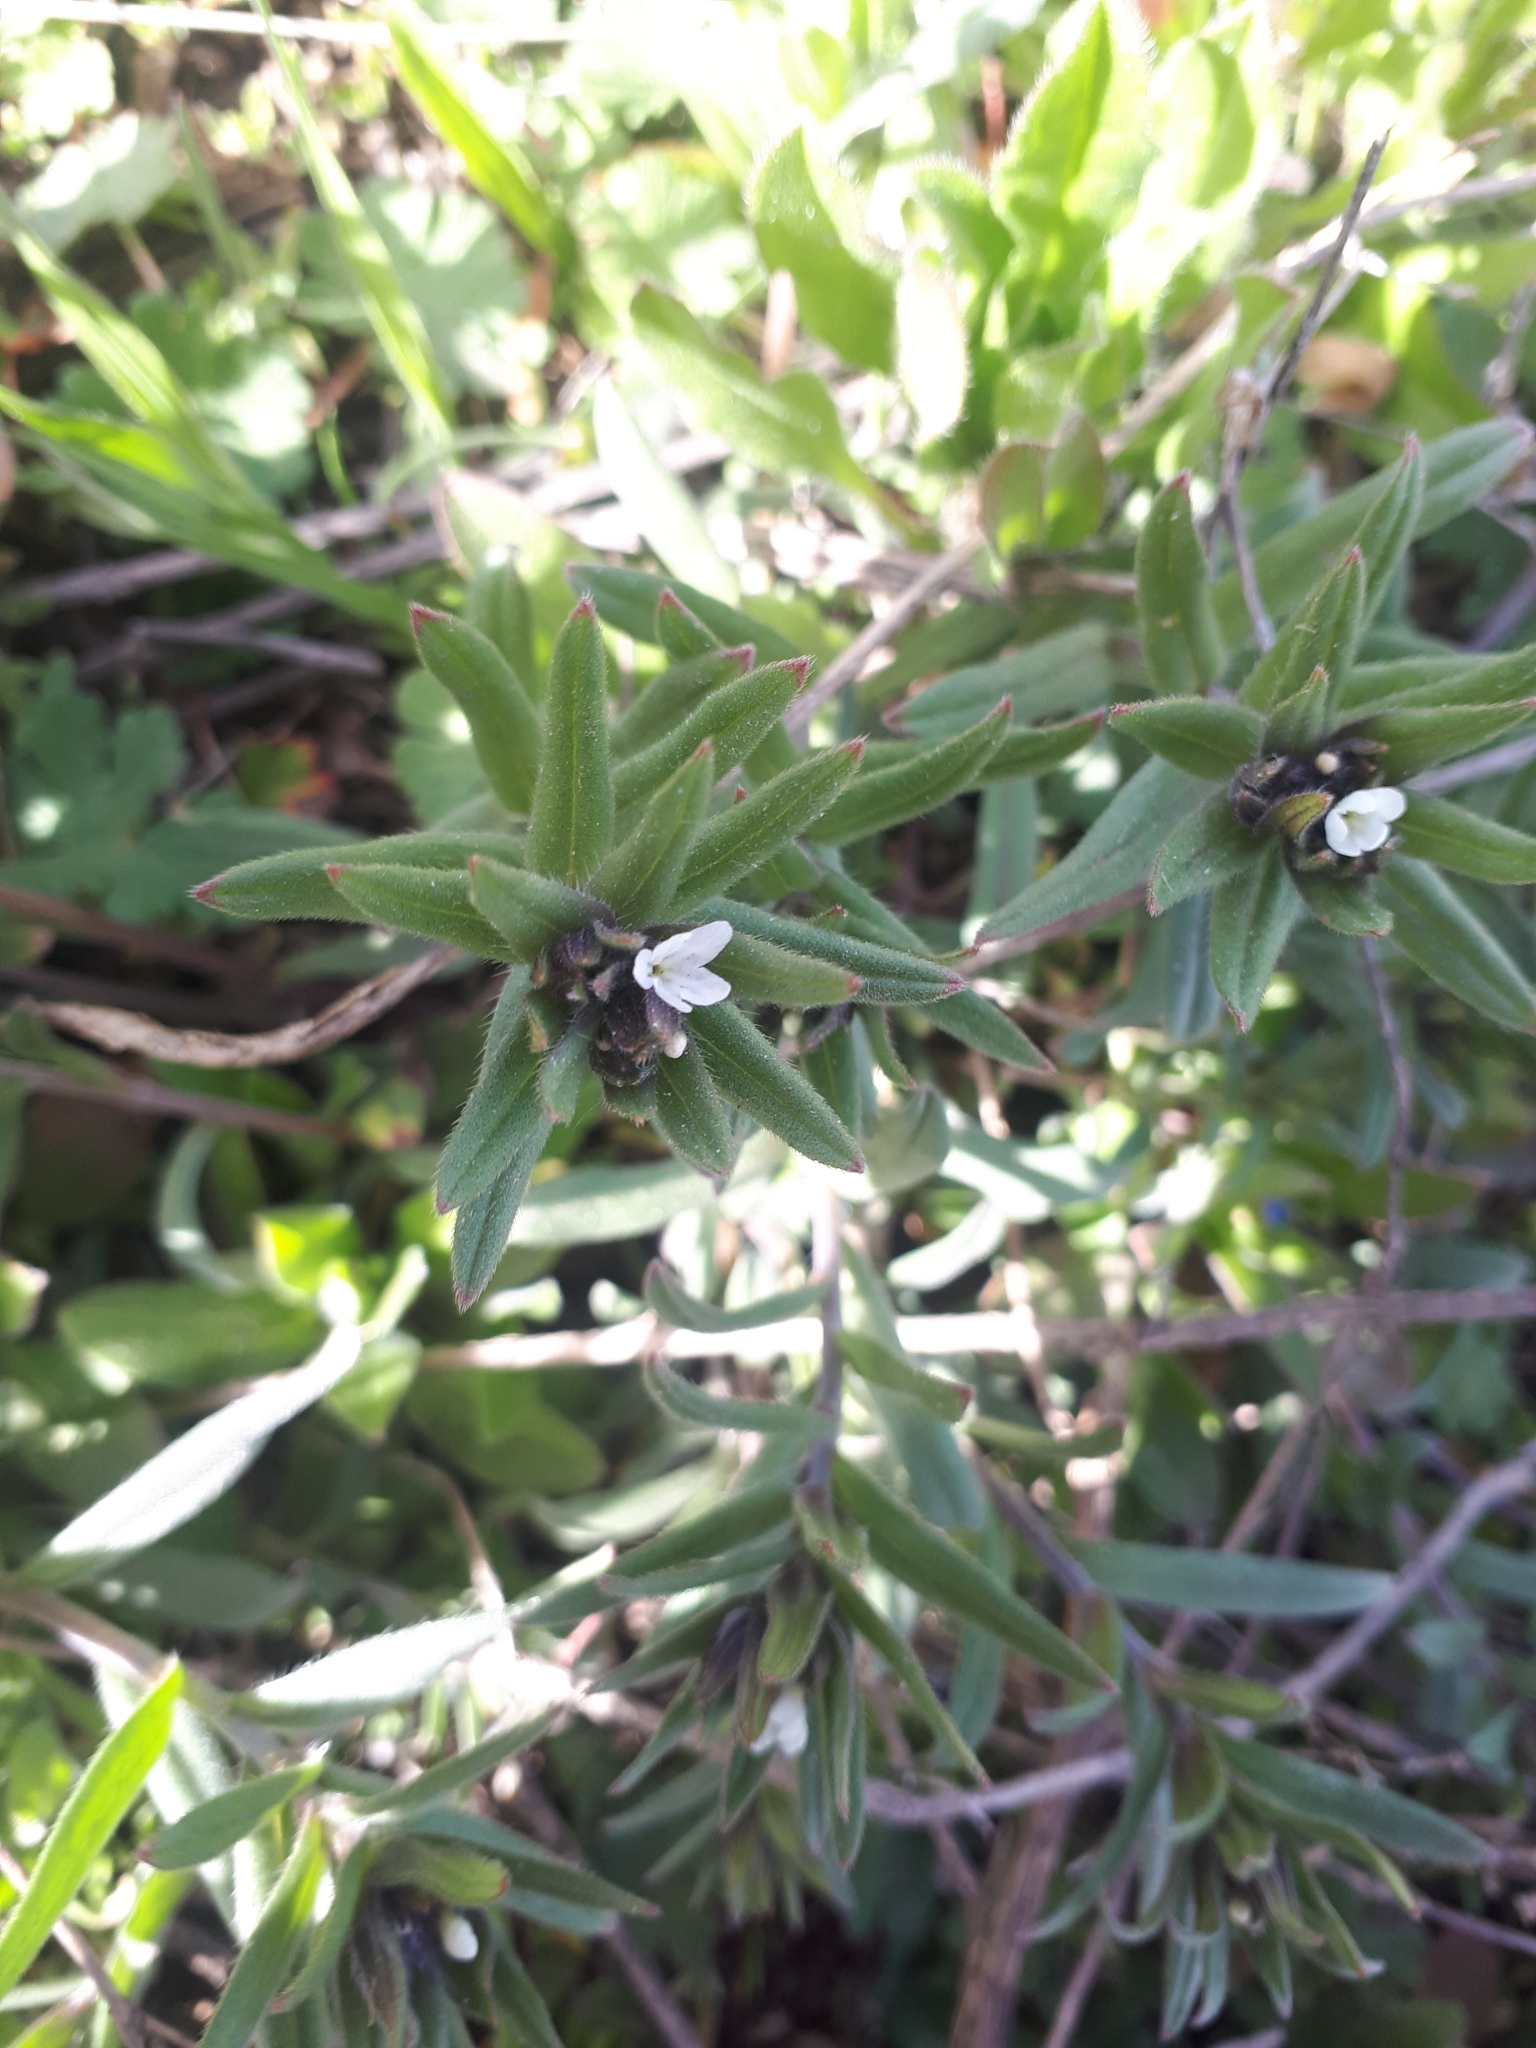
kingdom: Plantae
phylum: Tracheophyta
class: Magnoliopsida
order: Boraginales
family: Boraginaceae
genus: Buglossoides
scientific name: Buglossoides arvensis
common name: Corn gromwell
